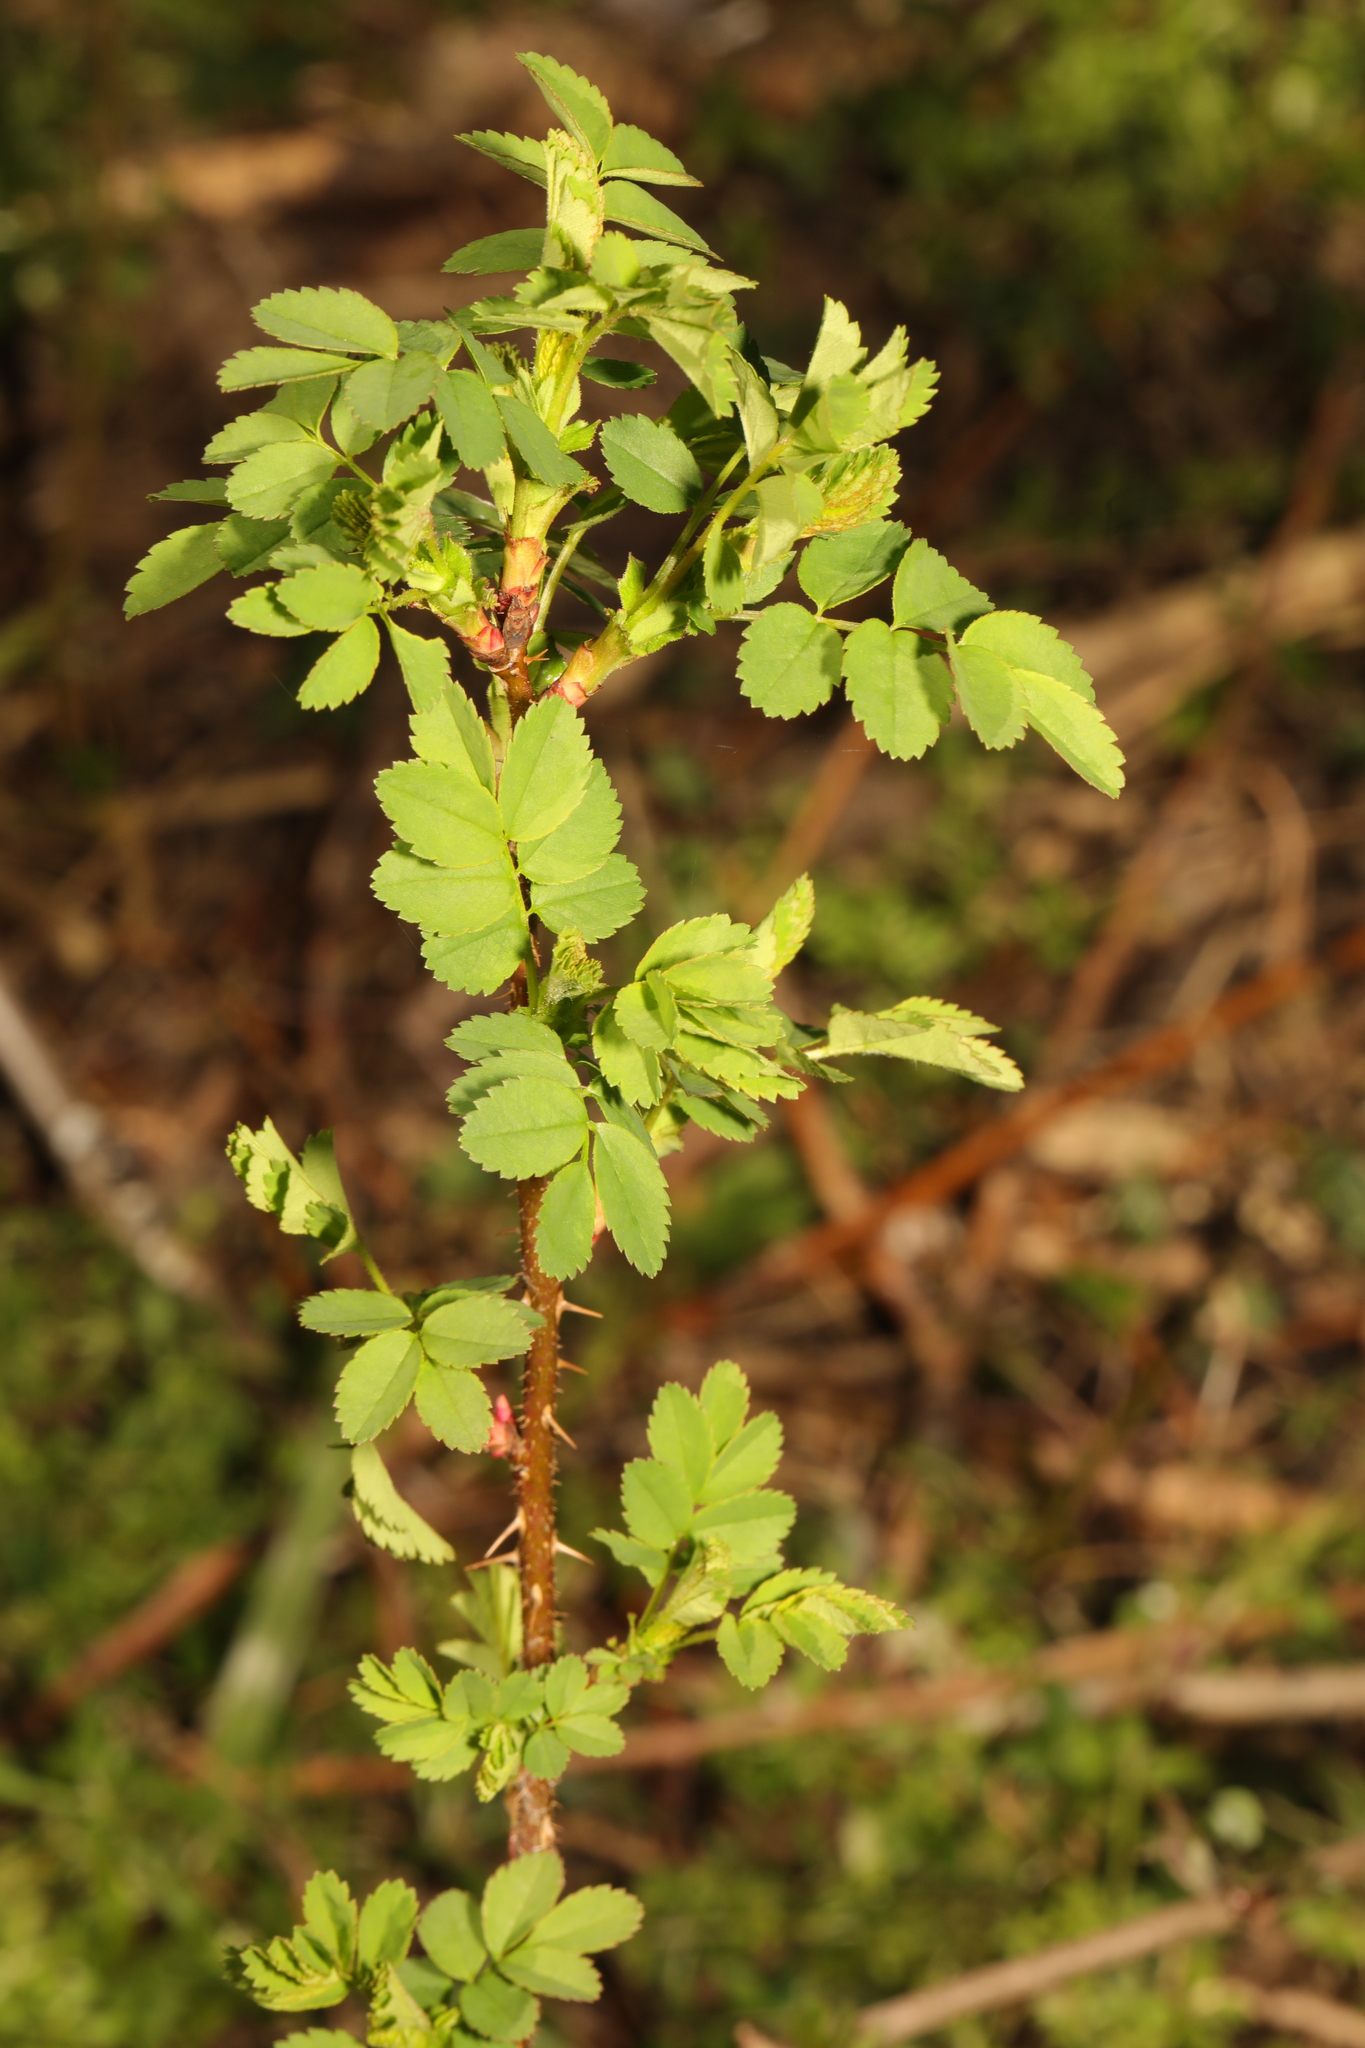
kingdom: Plantae
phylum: Tracheophyta
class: Magnoliopsida
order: Rosales
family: Rosaceae
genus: Rosa
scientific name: Rosa spinosissima
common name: Burnet rose
